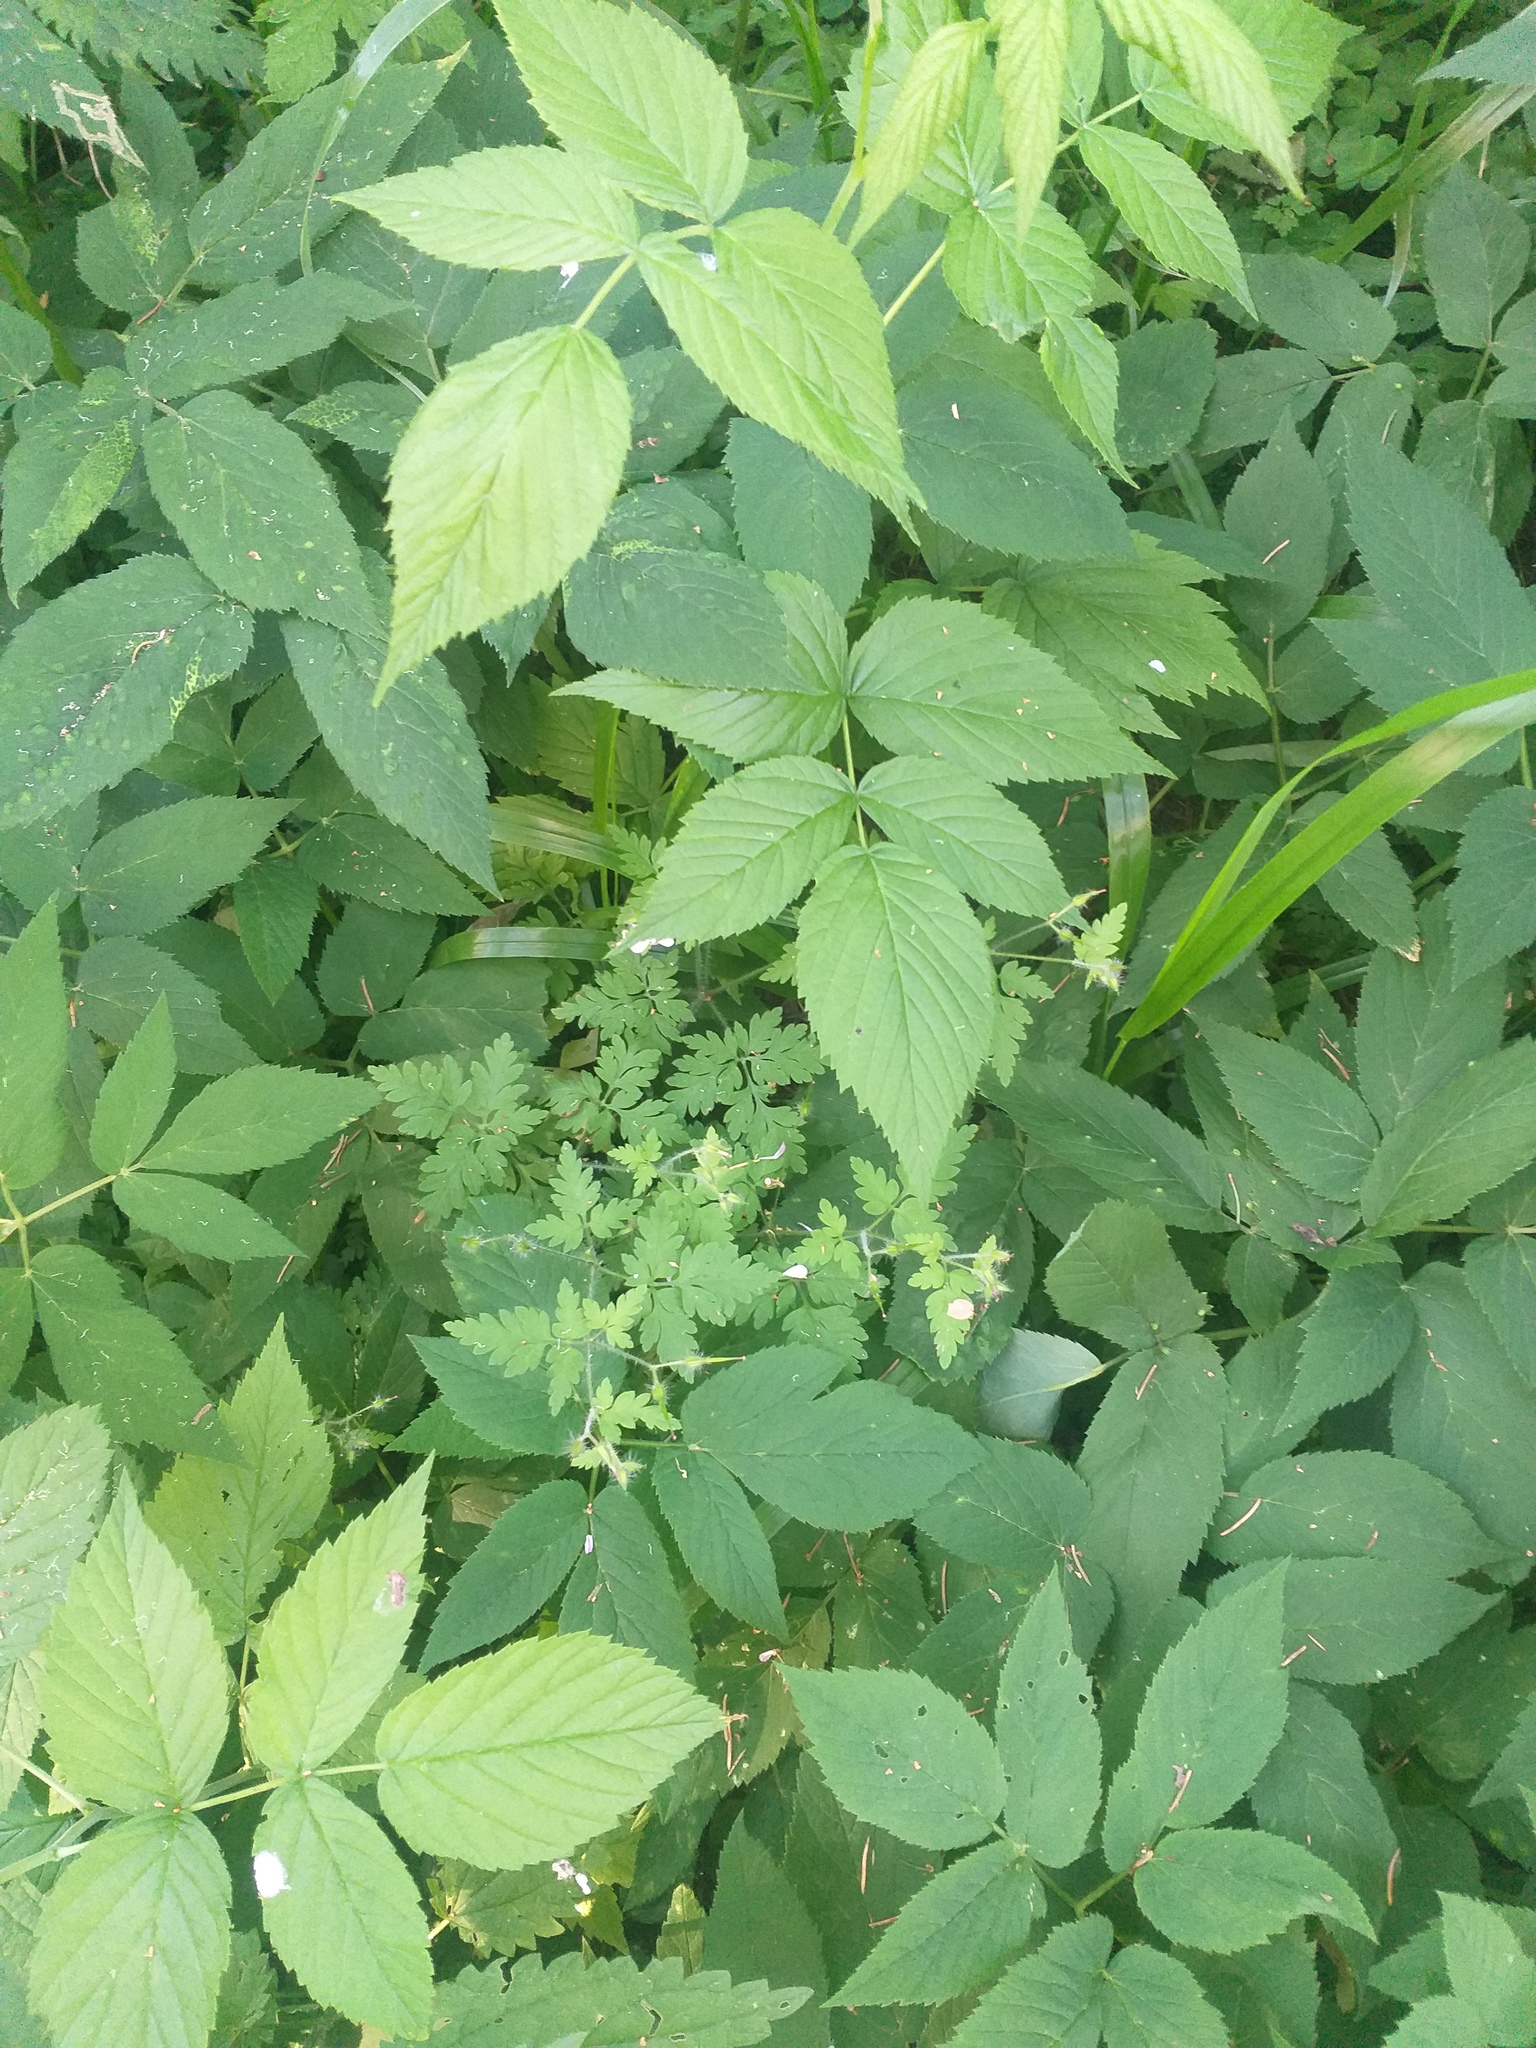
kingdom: Plantae
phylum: Tracheophyta
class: Magnoliopsida
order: Geraniales
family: Geraniaceae
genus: Geranium
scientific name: Geranium robertianum
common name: Herb-robert
